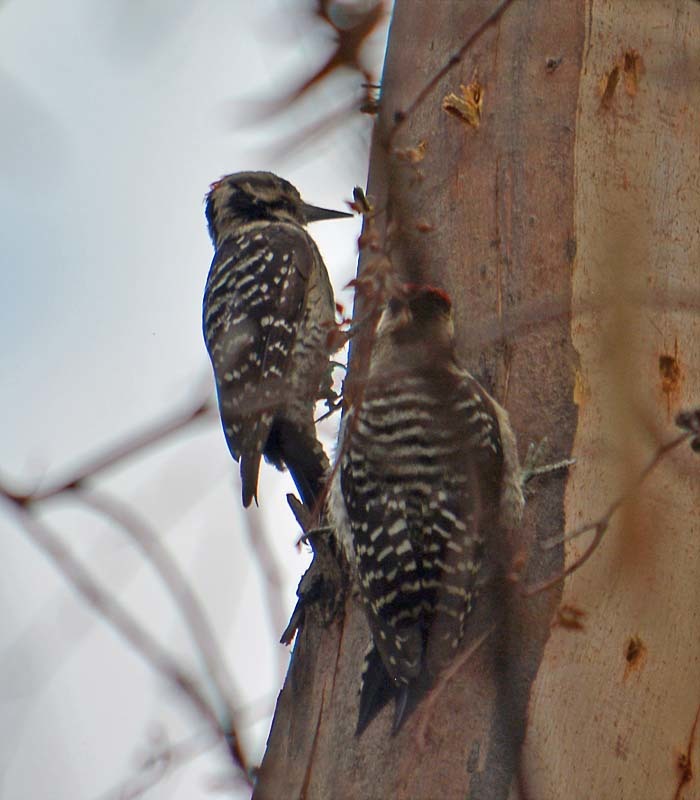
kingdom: Animalia
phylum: Chordata
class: Aves
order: Piciformes
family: Picidae
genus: Dryobates
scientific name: Dryobates scalaris
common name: Ladder-backed woodpecker
